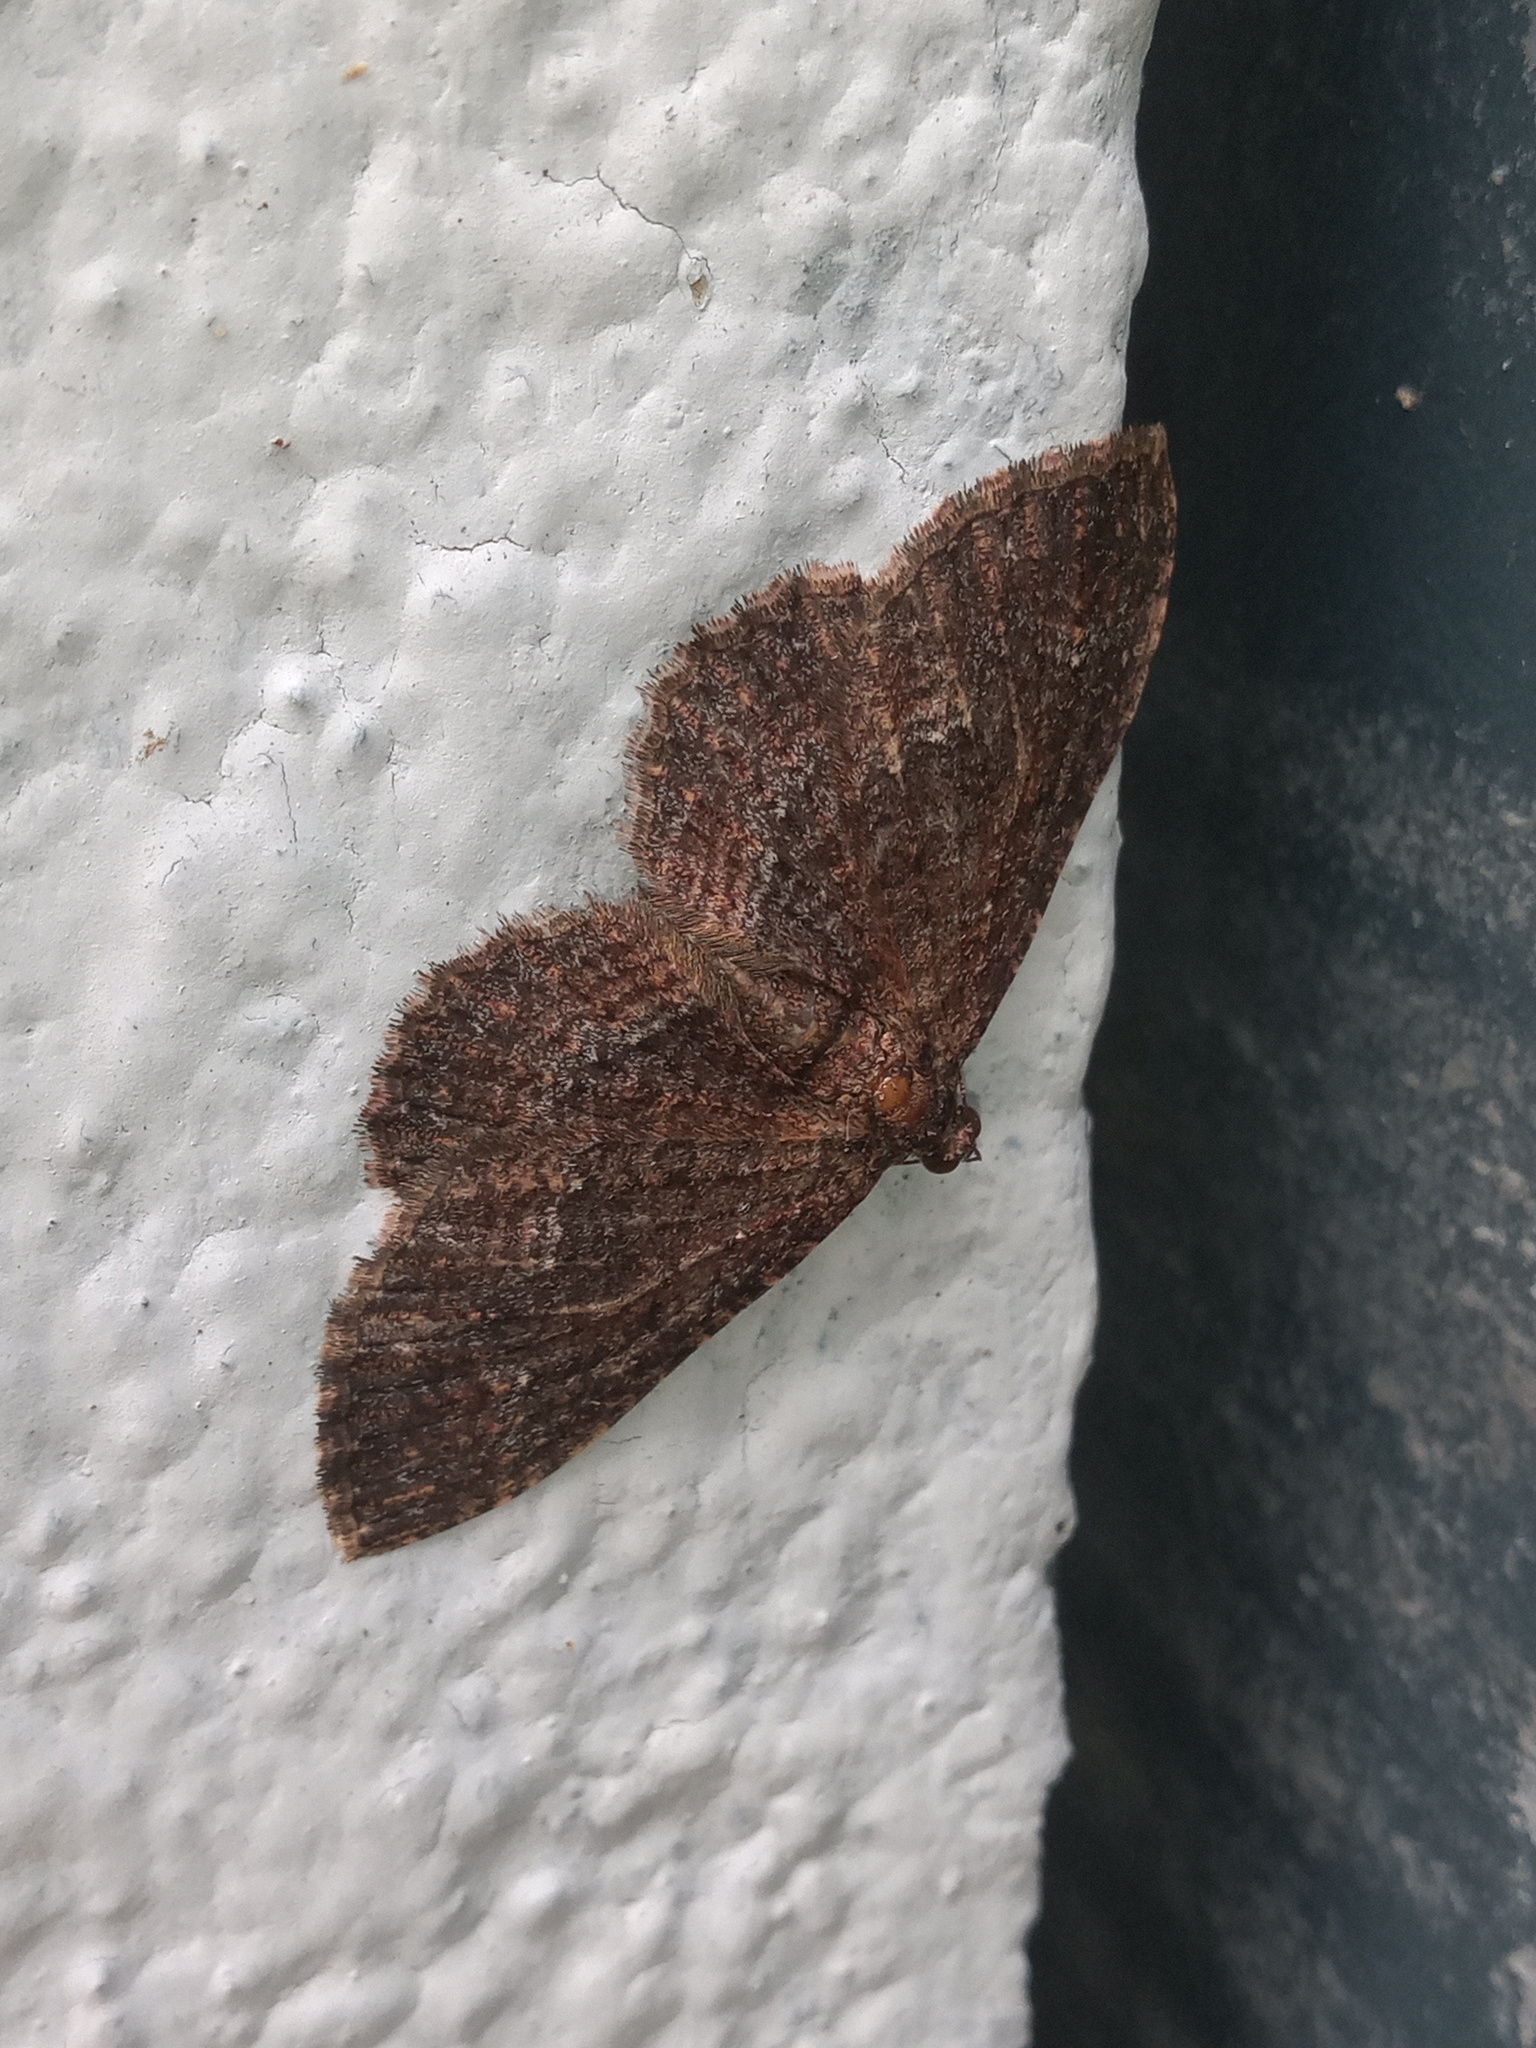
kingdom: Animalia
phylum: Arthropoda
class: Insecta
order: Lepidoptera
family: Geometridae
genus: Disclisioprocta
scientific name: Disclisioprocta stellata
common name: Somber carpet
